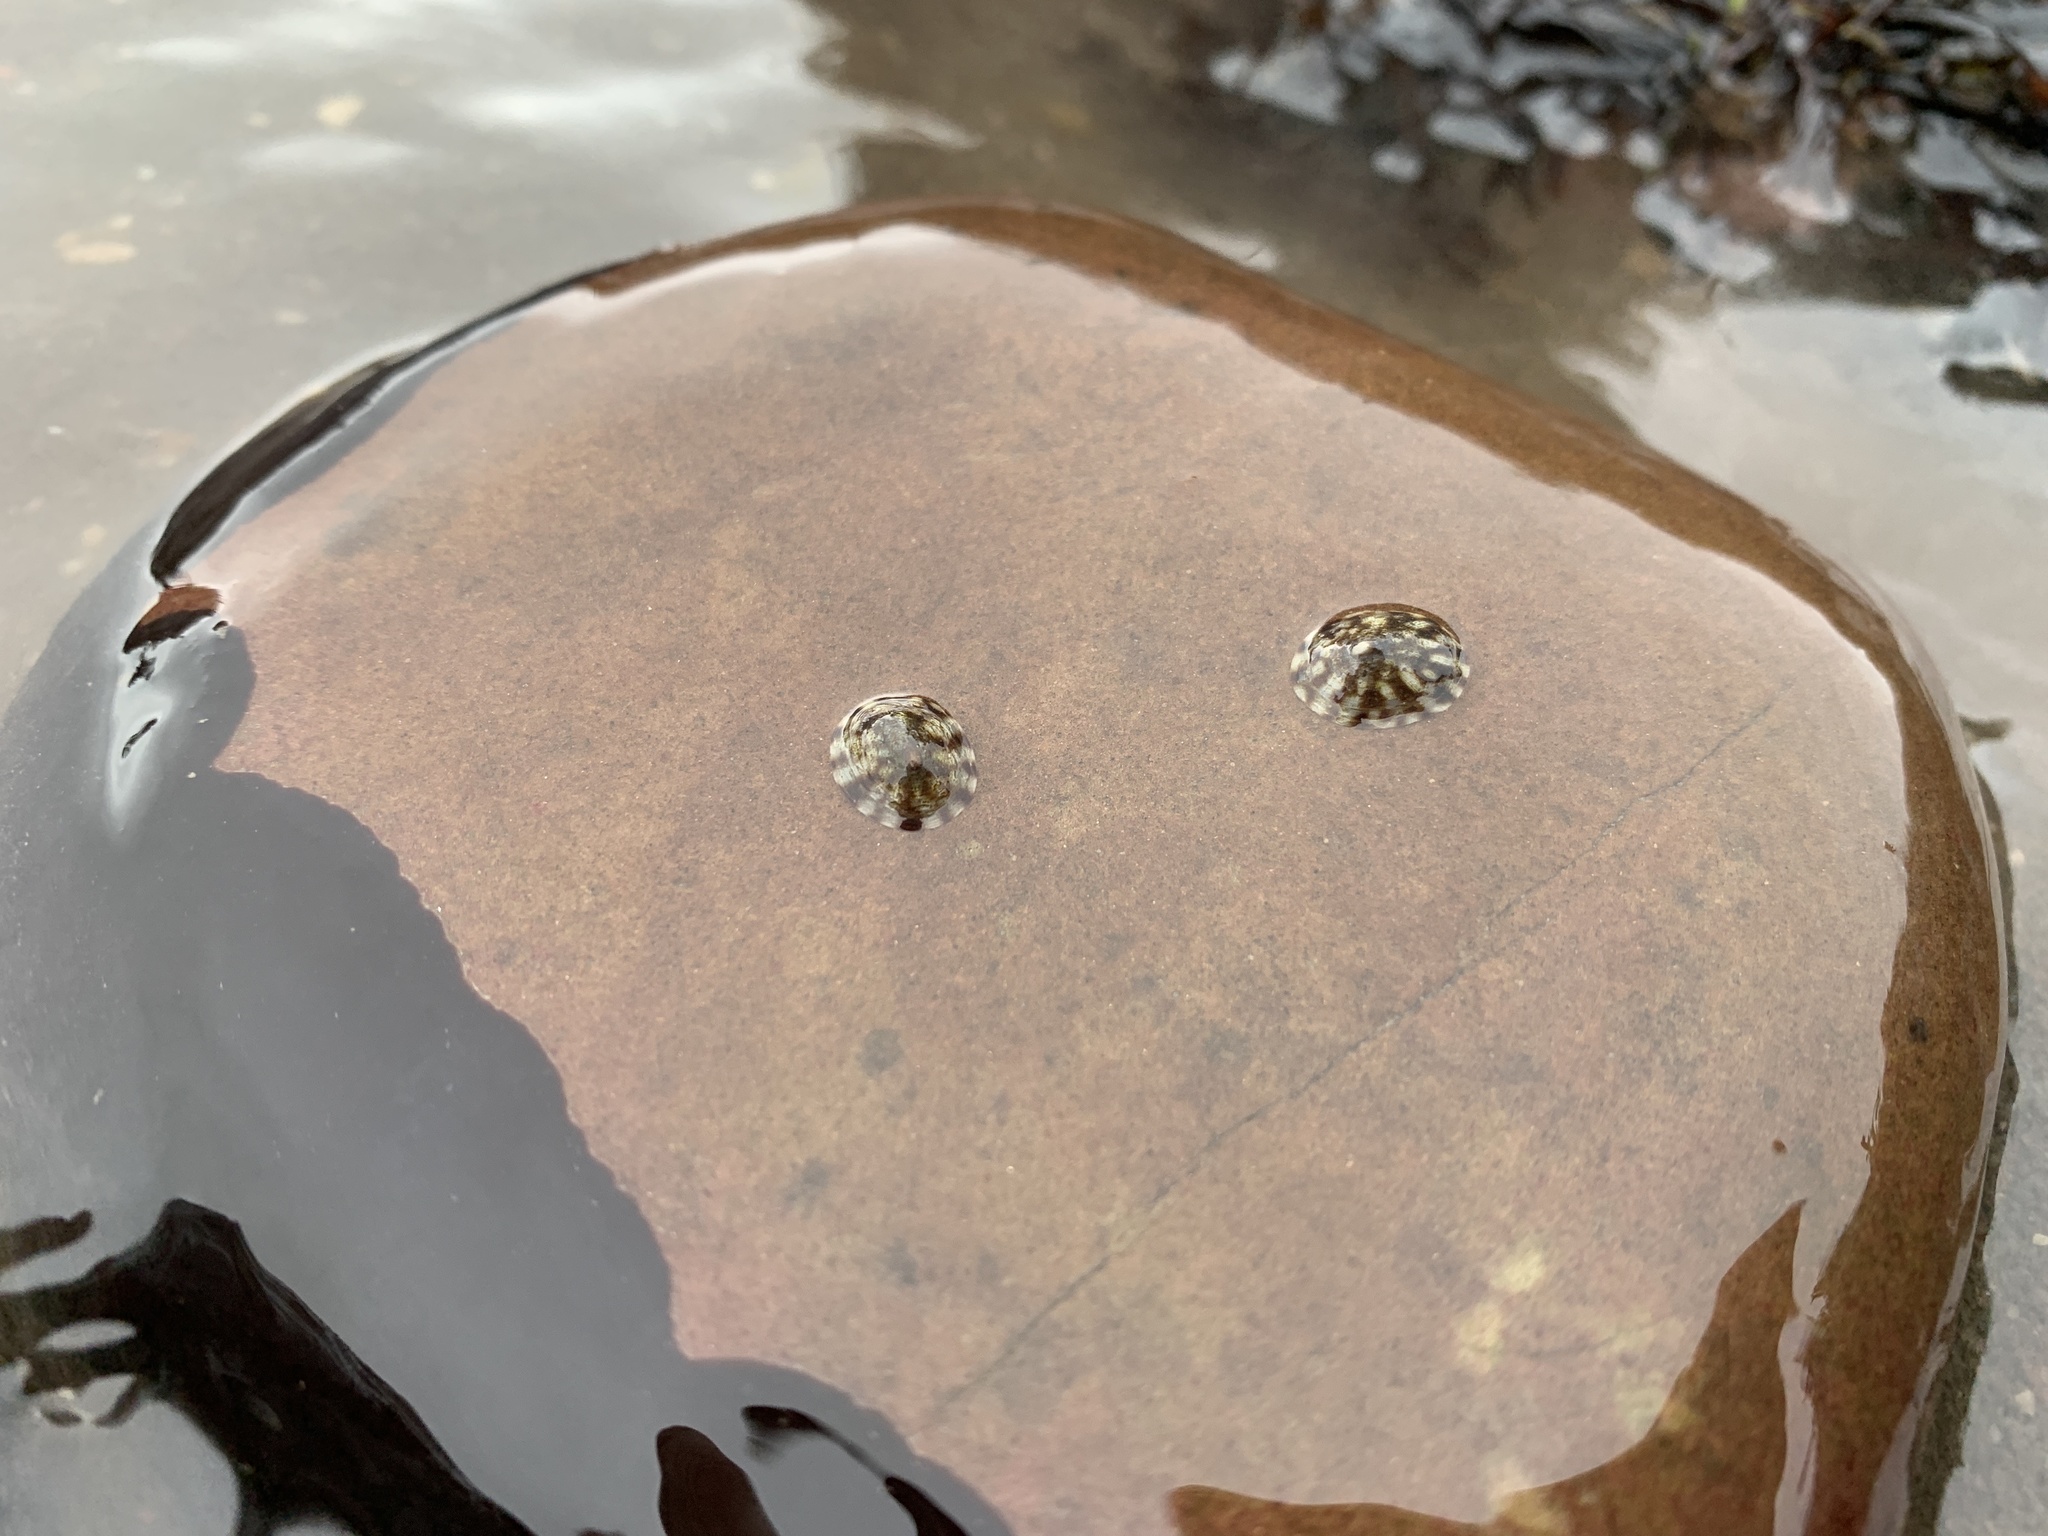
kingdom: Animalia
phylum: Mollusca
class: Gastropoda
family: Lottiidae
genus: Testudinalia
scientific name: Testudinalia testudinalis
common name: Common tortoiseshell limpet
